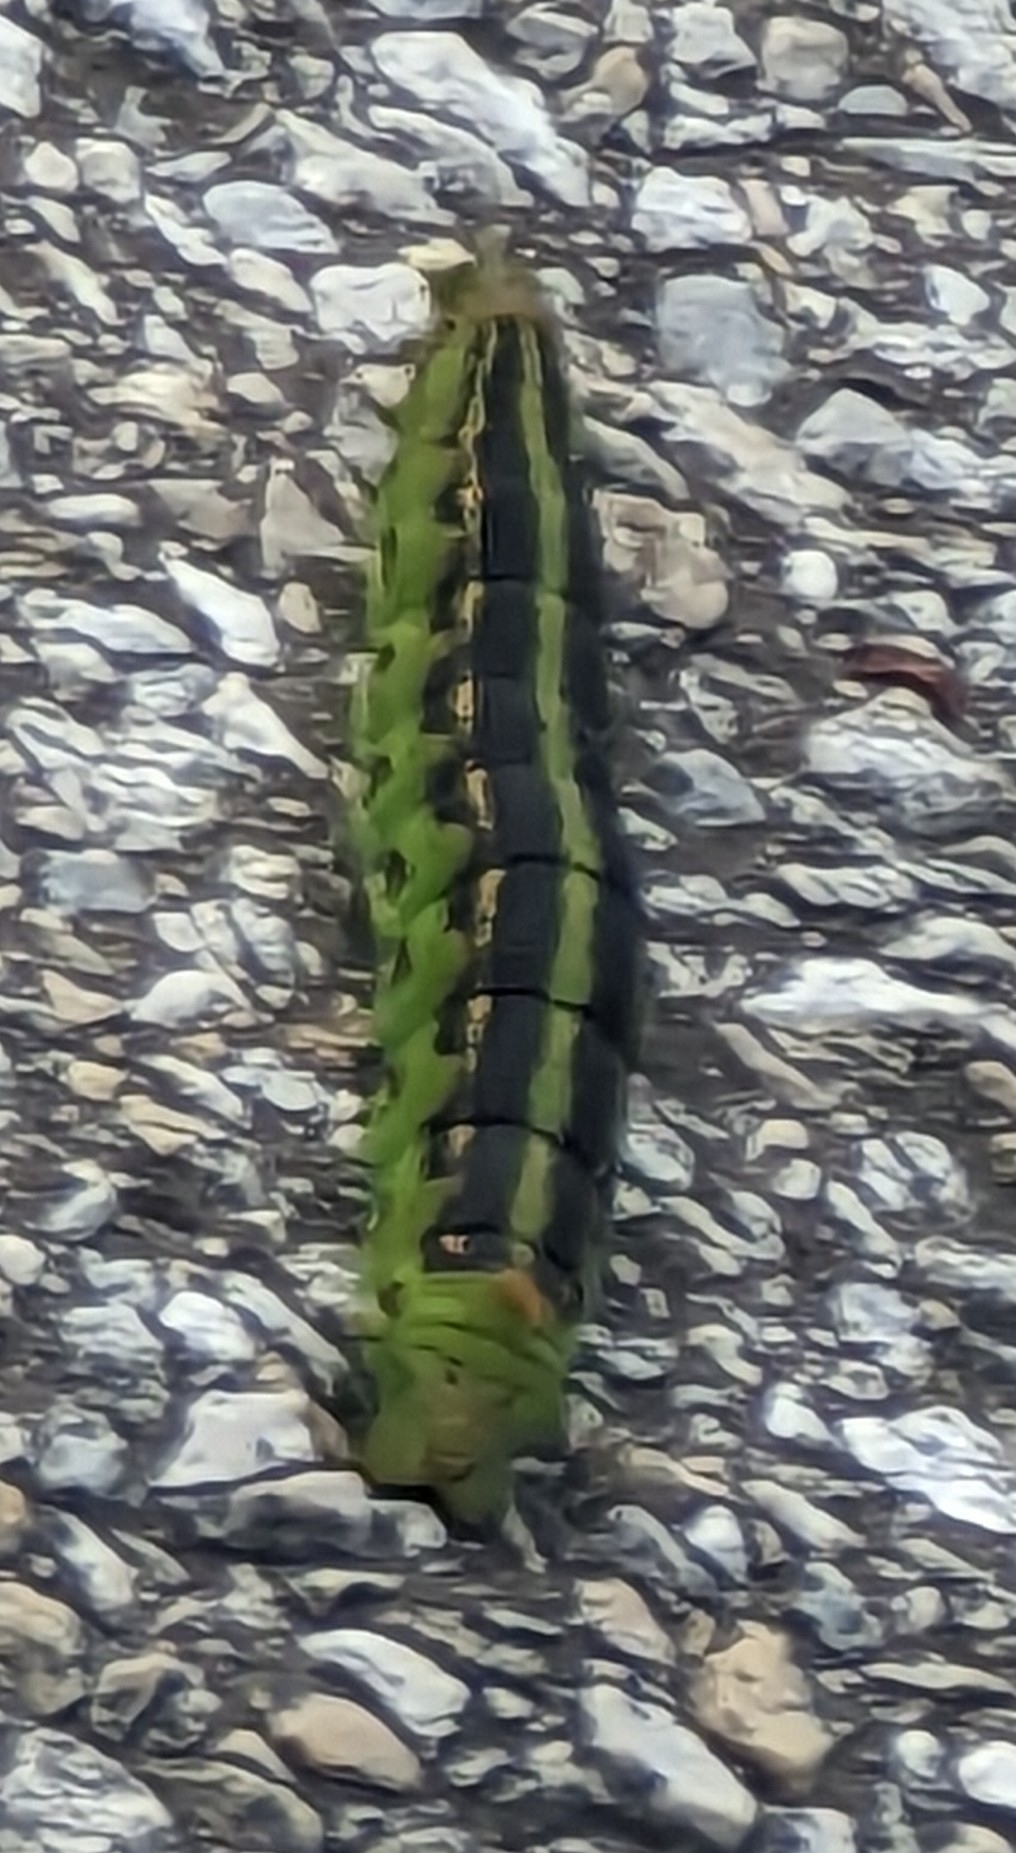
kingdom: Animalia
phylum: Arthropoda
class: Insecta
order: Lepidoptera
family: Sphingidae
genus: Hyles
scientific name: Hyles lineata
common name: White-lined sphinx
